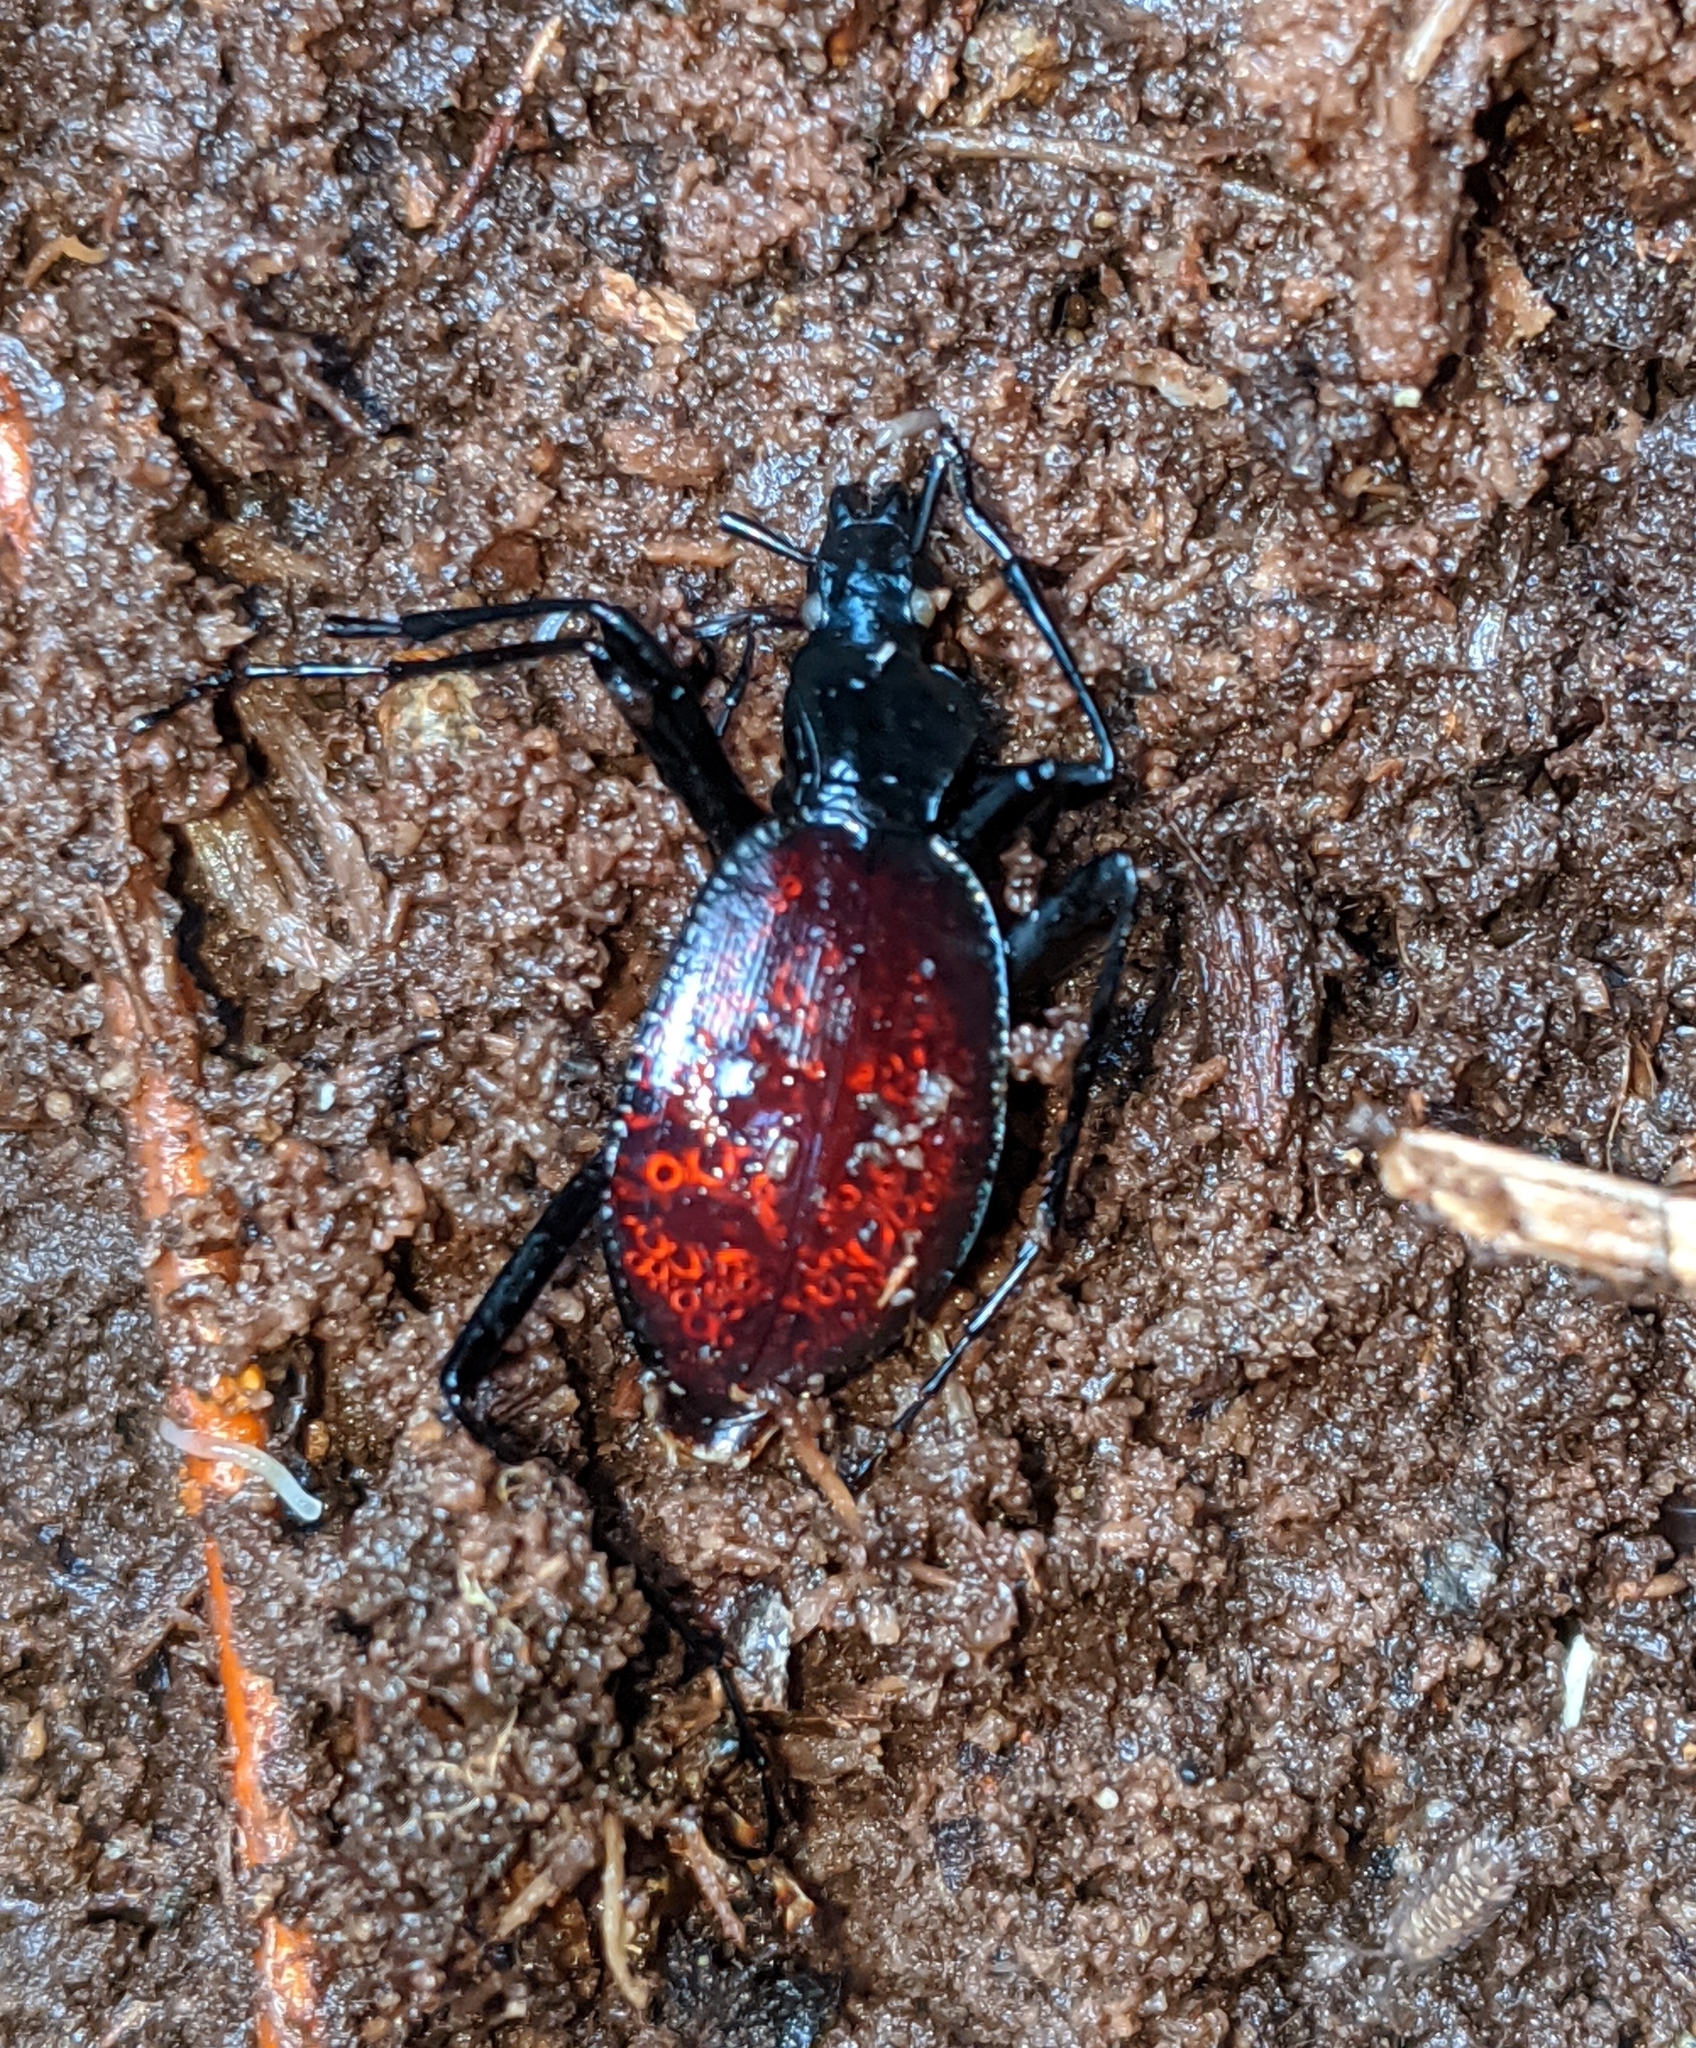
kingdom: Animalia
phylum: Arthropoda
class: Insecta
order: Coleoptera
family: Carabidae
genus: Scaphinotus
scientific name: Scaphinotus angusticollis
